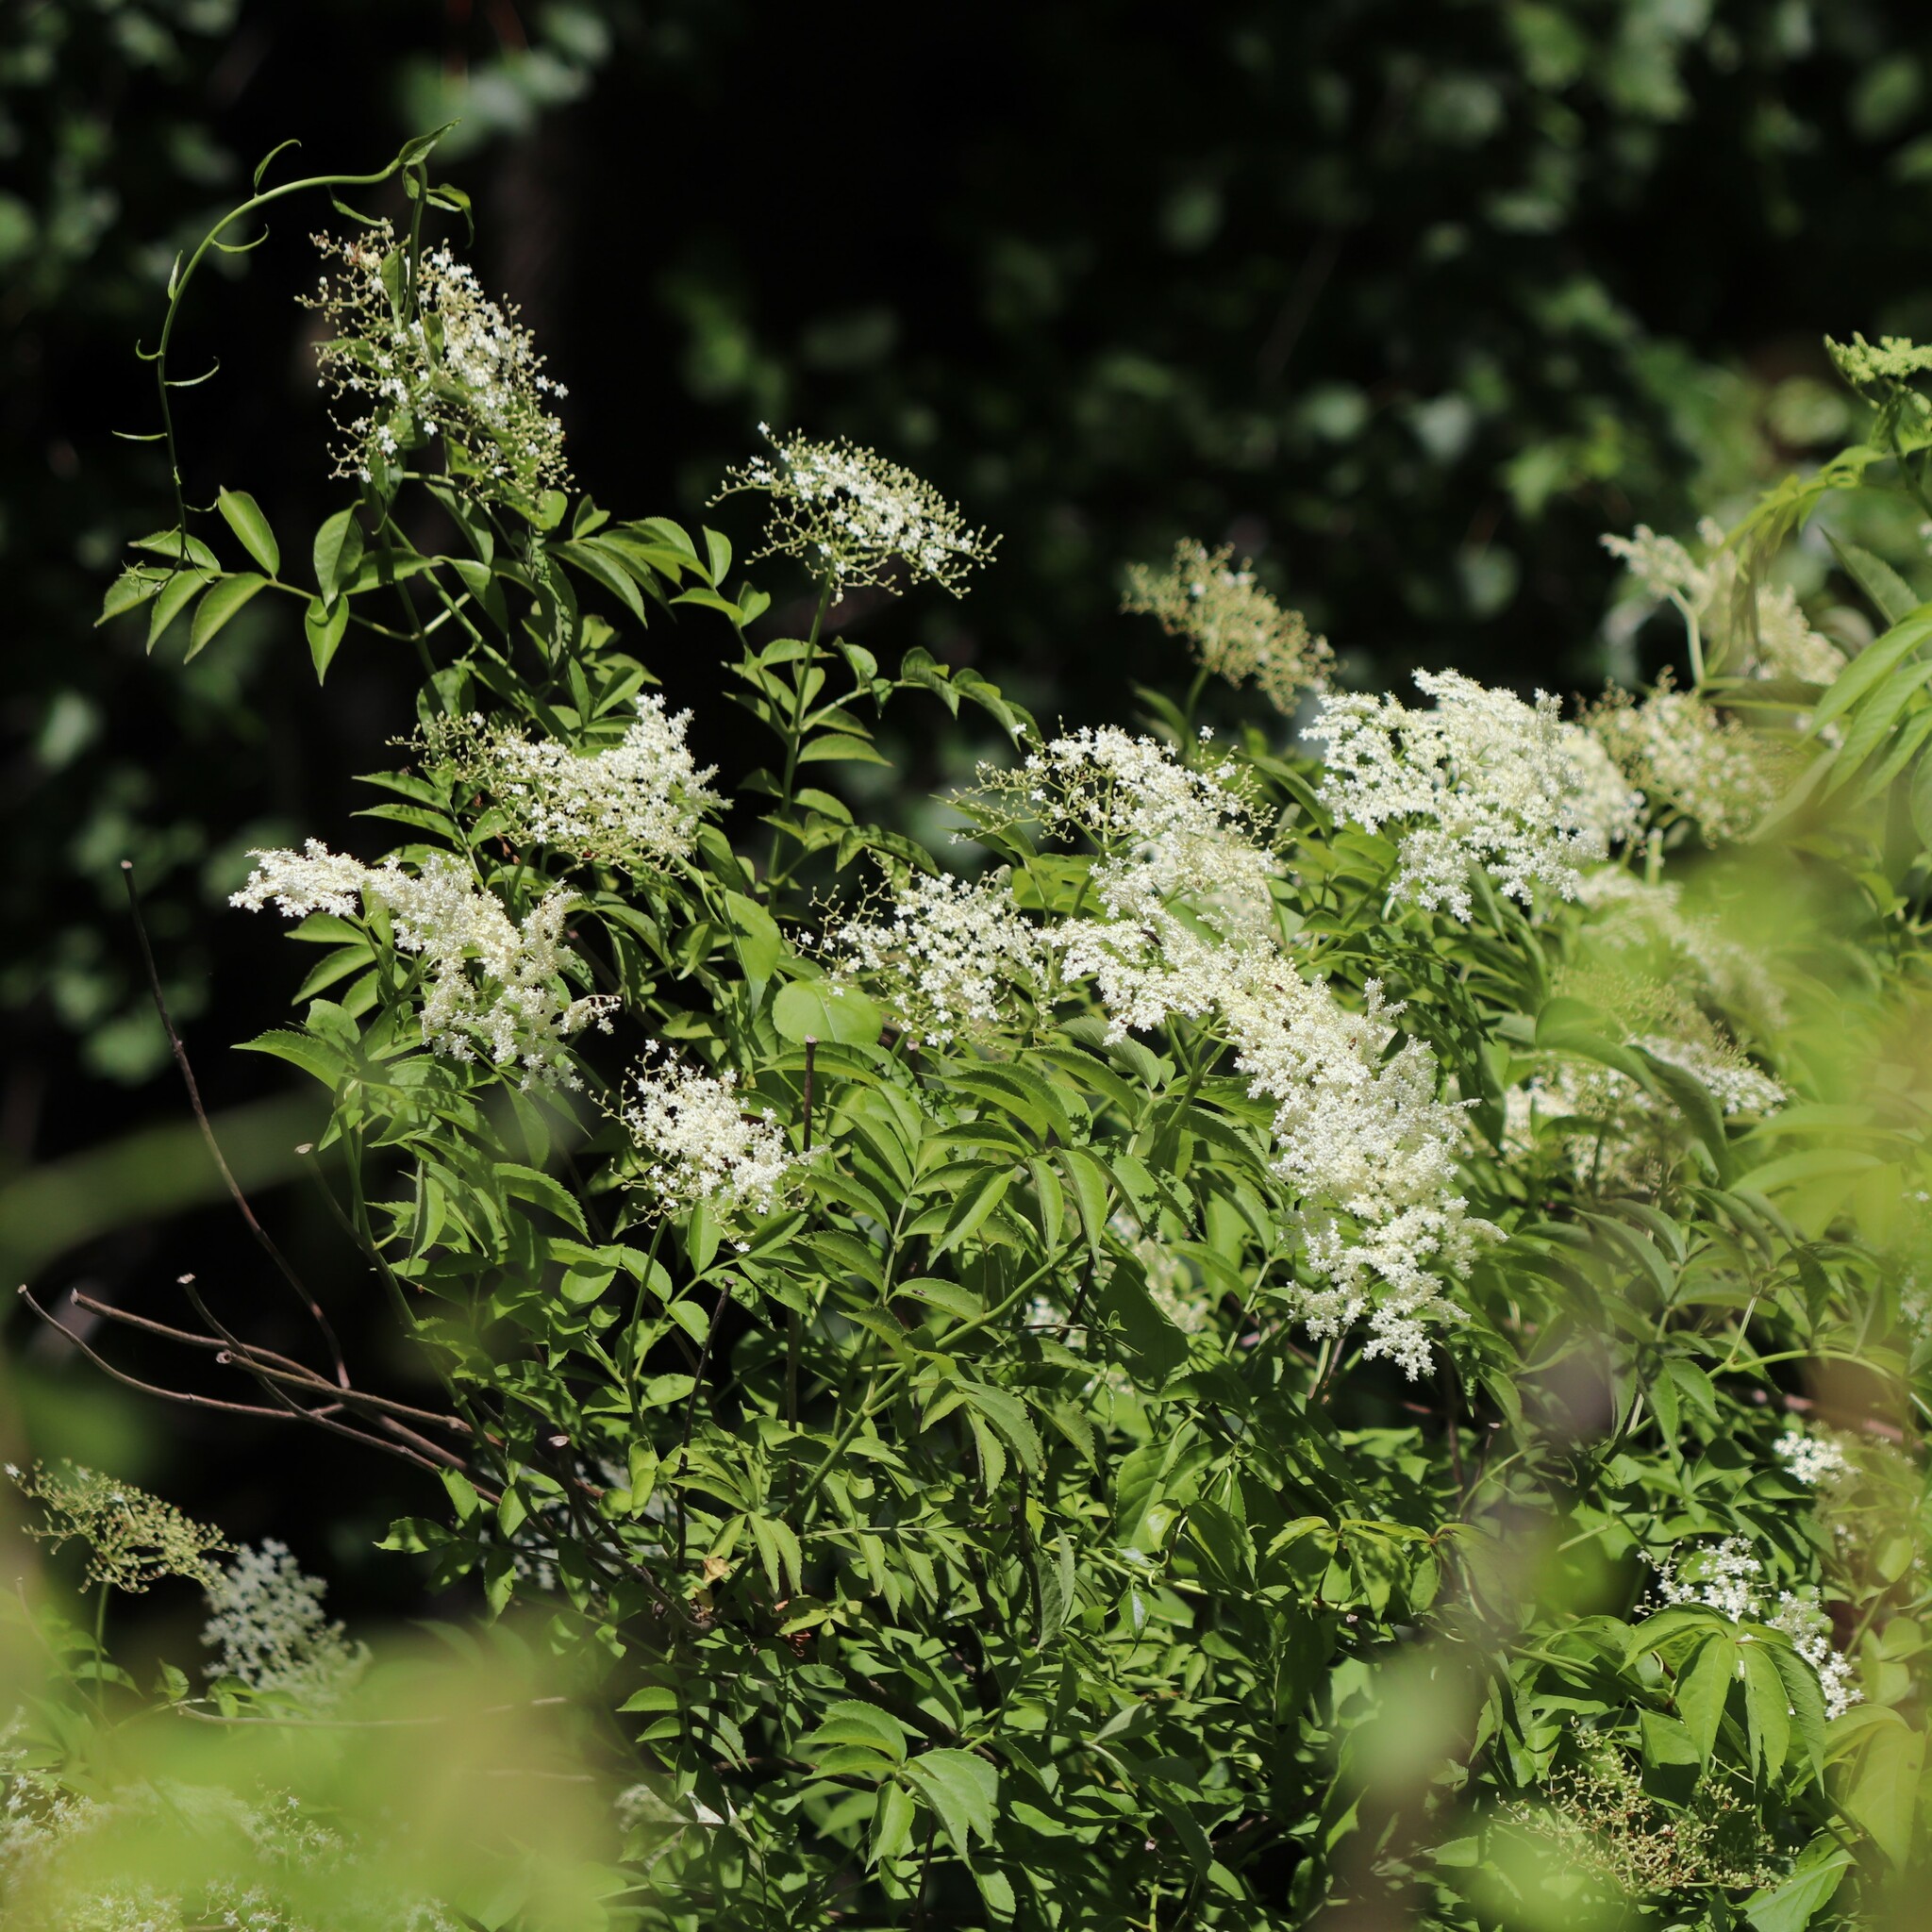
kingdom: Plantae
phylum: Tracheophyta
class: Magnoliopsida
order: Dipsacales
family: Viburnaceae
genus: Sambucus
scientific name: Sambucus canadensis
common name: American elder
